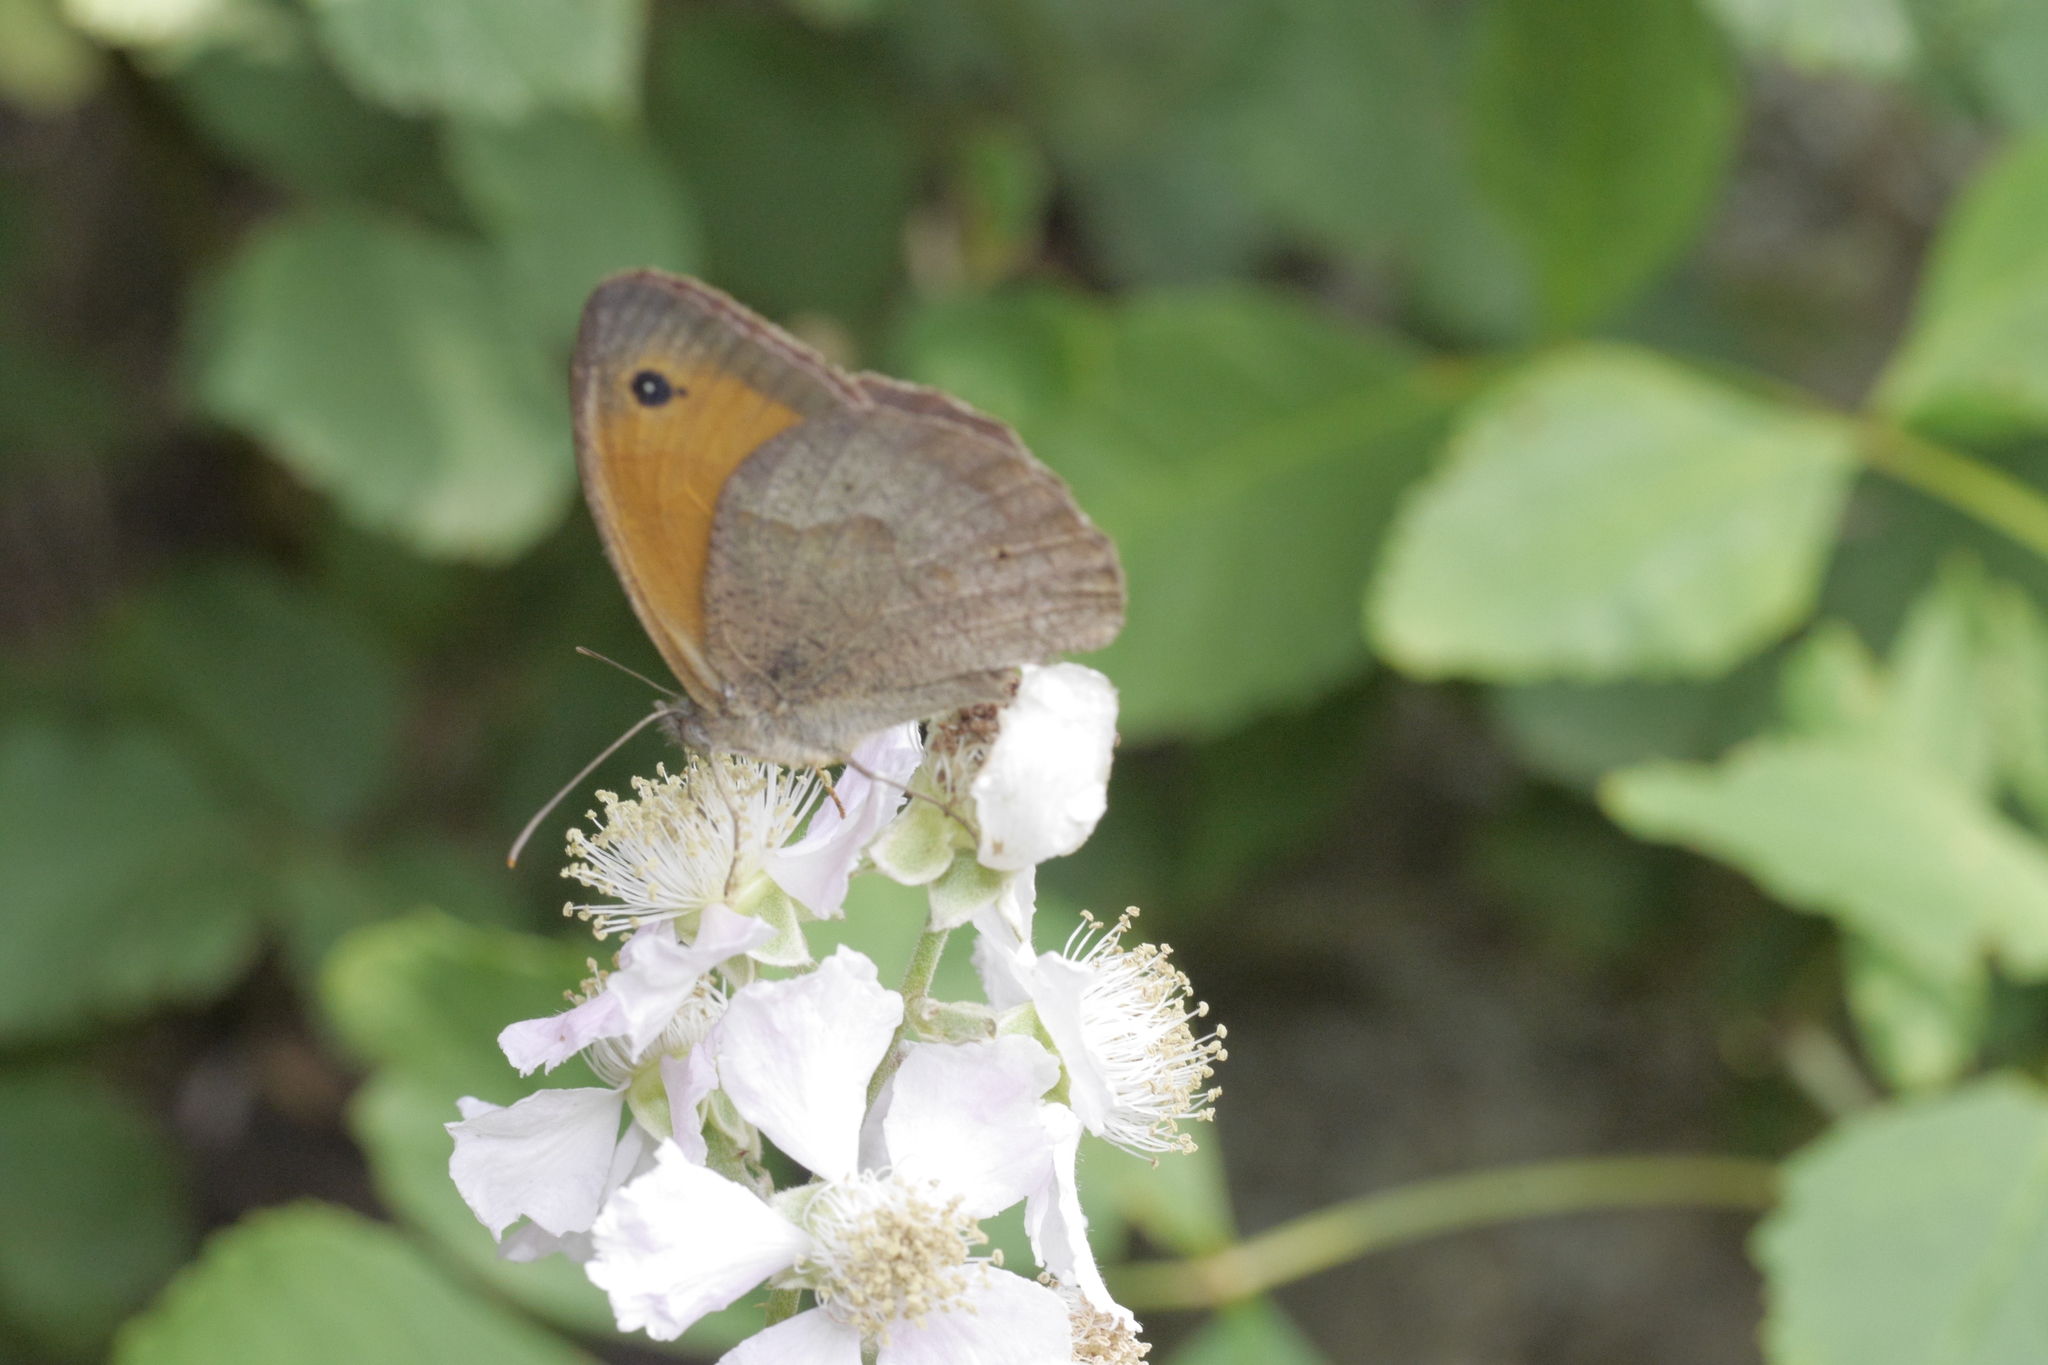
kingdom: Animalia
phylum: Arthropoda
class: Insecta
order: Lepidoptera
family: Nymphalidae
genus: Maniola
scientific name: Maniola jurtina
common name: Meadow brown
